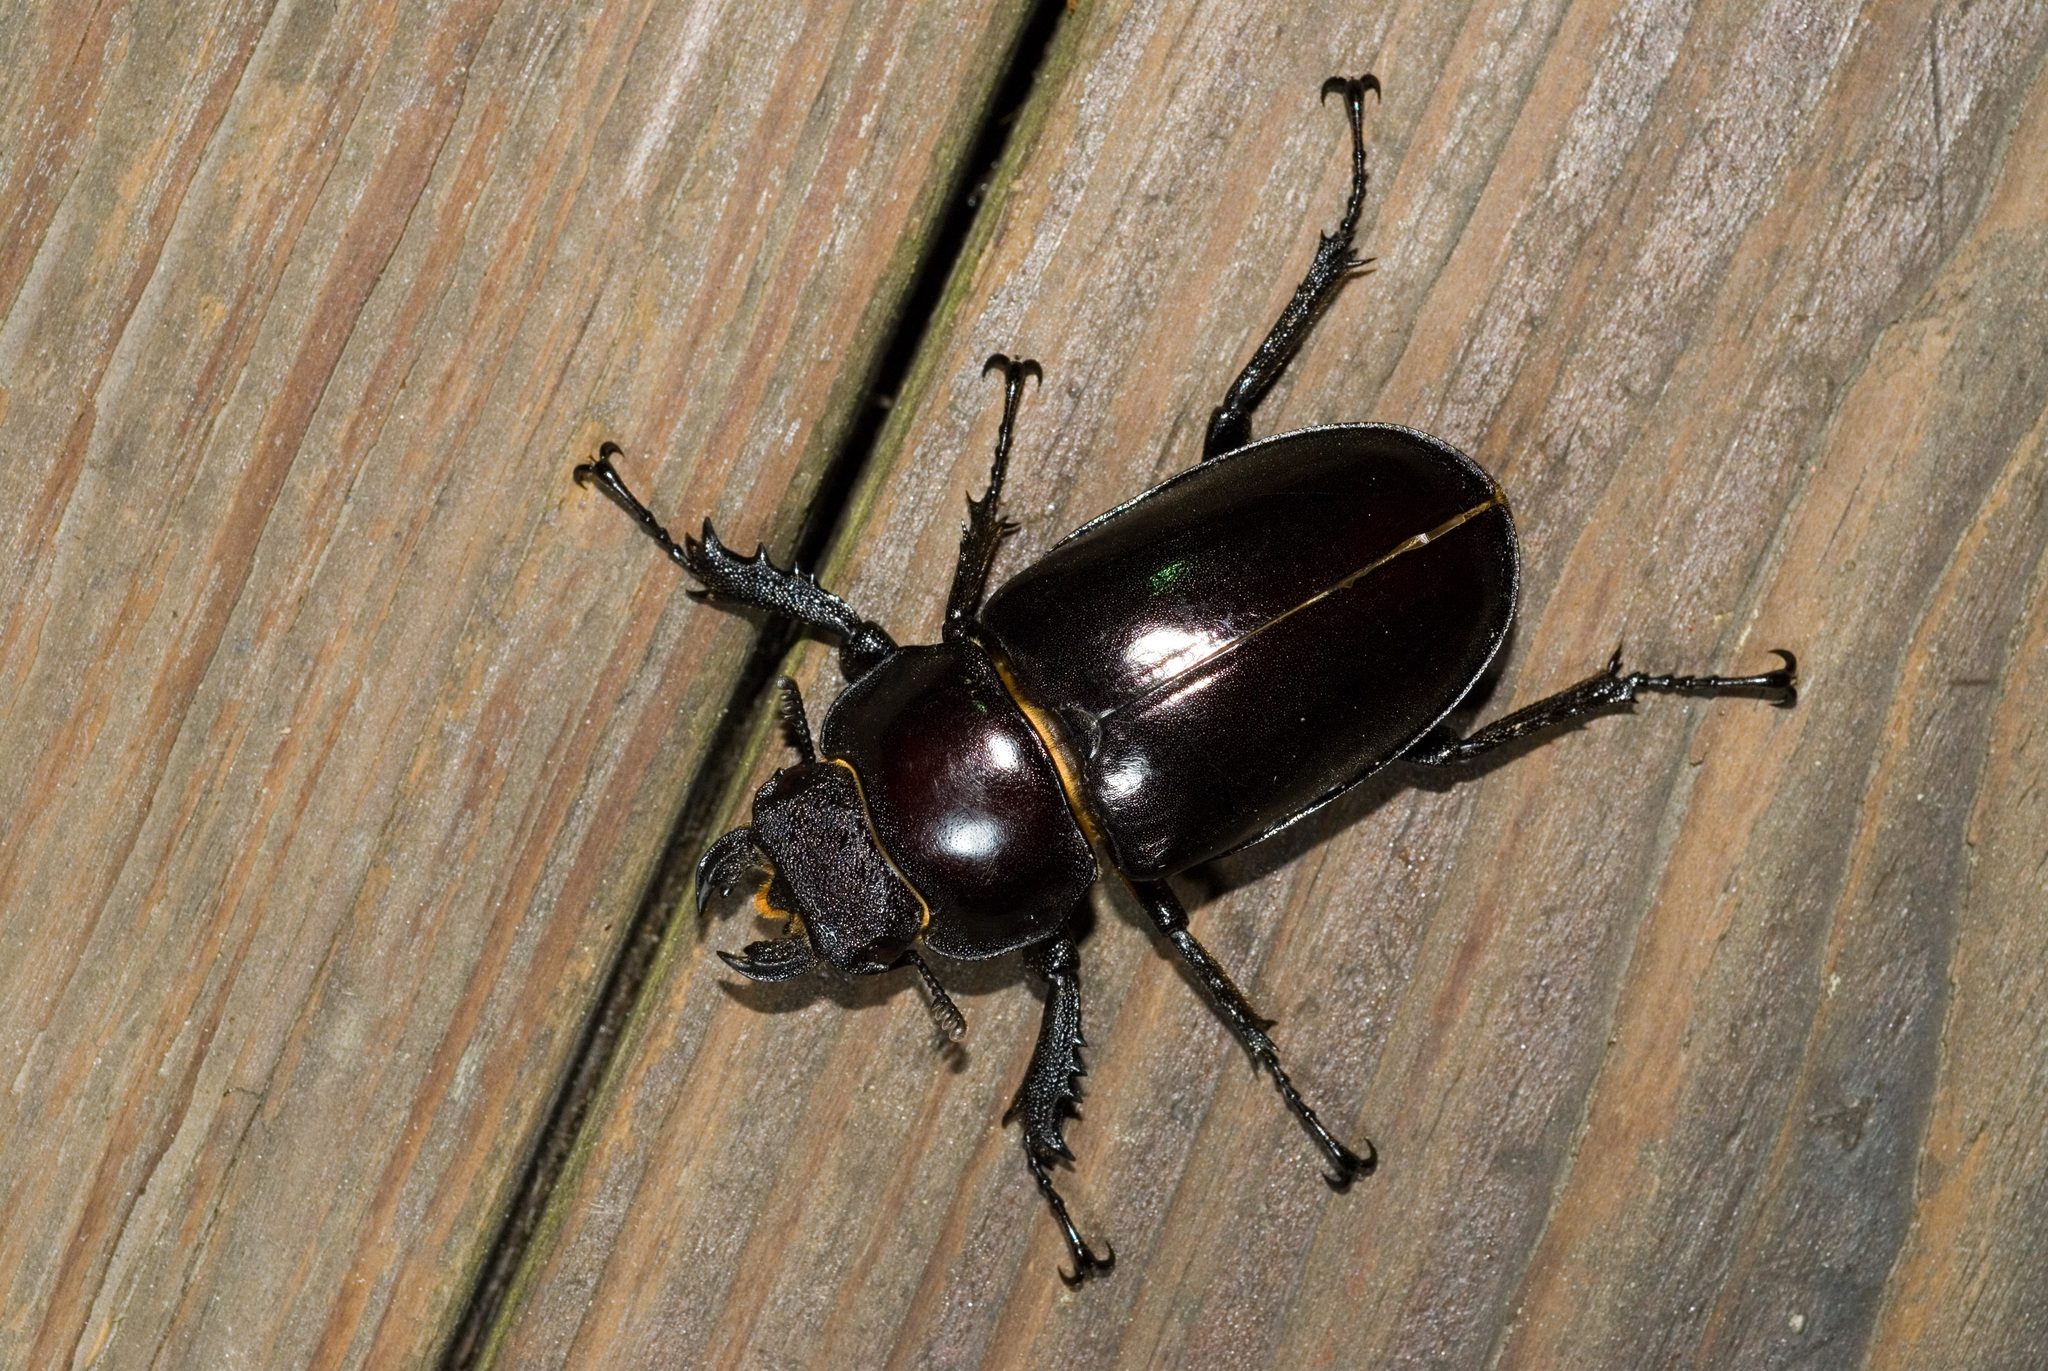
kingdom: Animalia
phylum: Arthropoda
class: Insecta
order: Coleoptera
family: Lucanidae
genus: Lucanus
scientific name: Lucanus maculifemoratus
